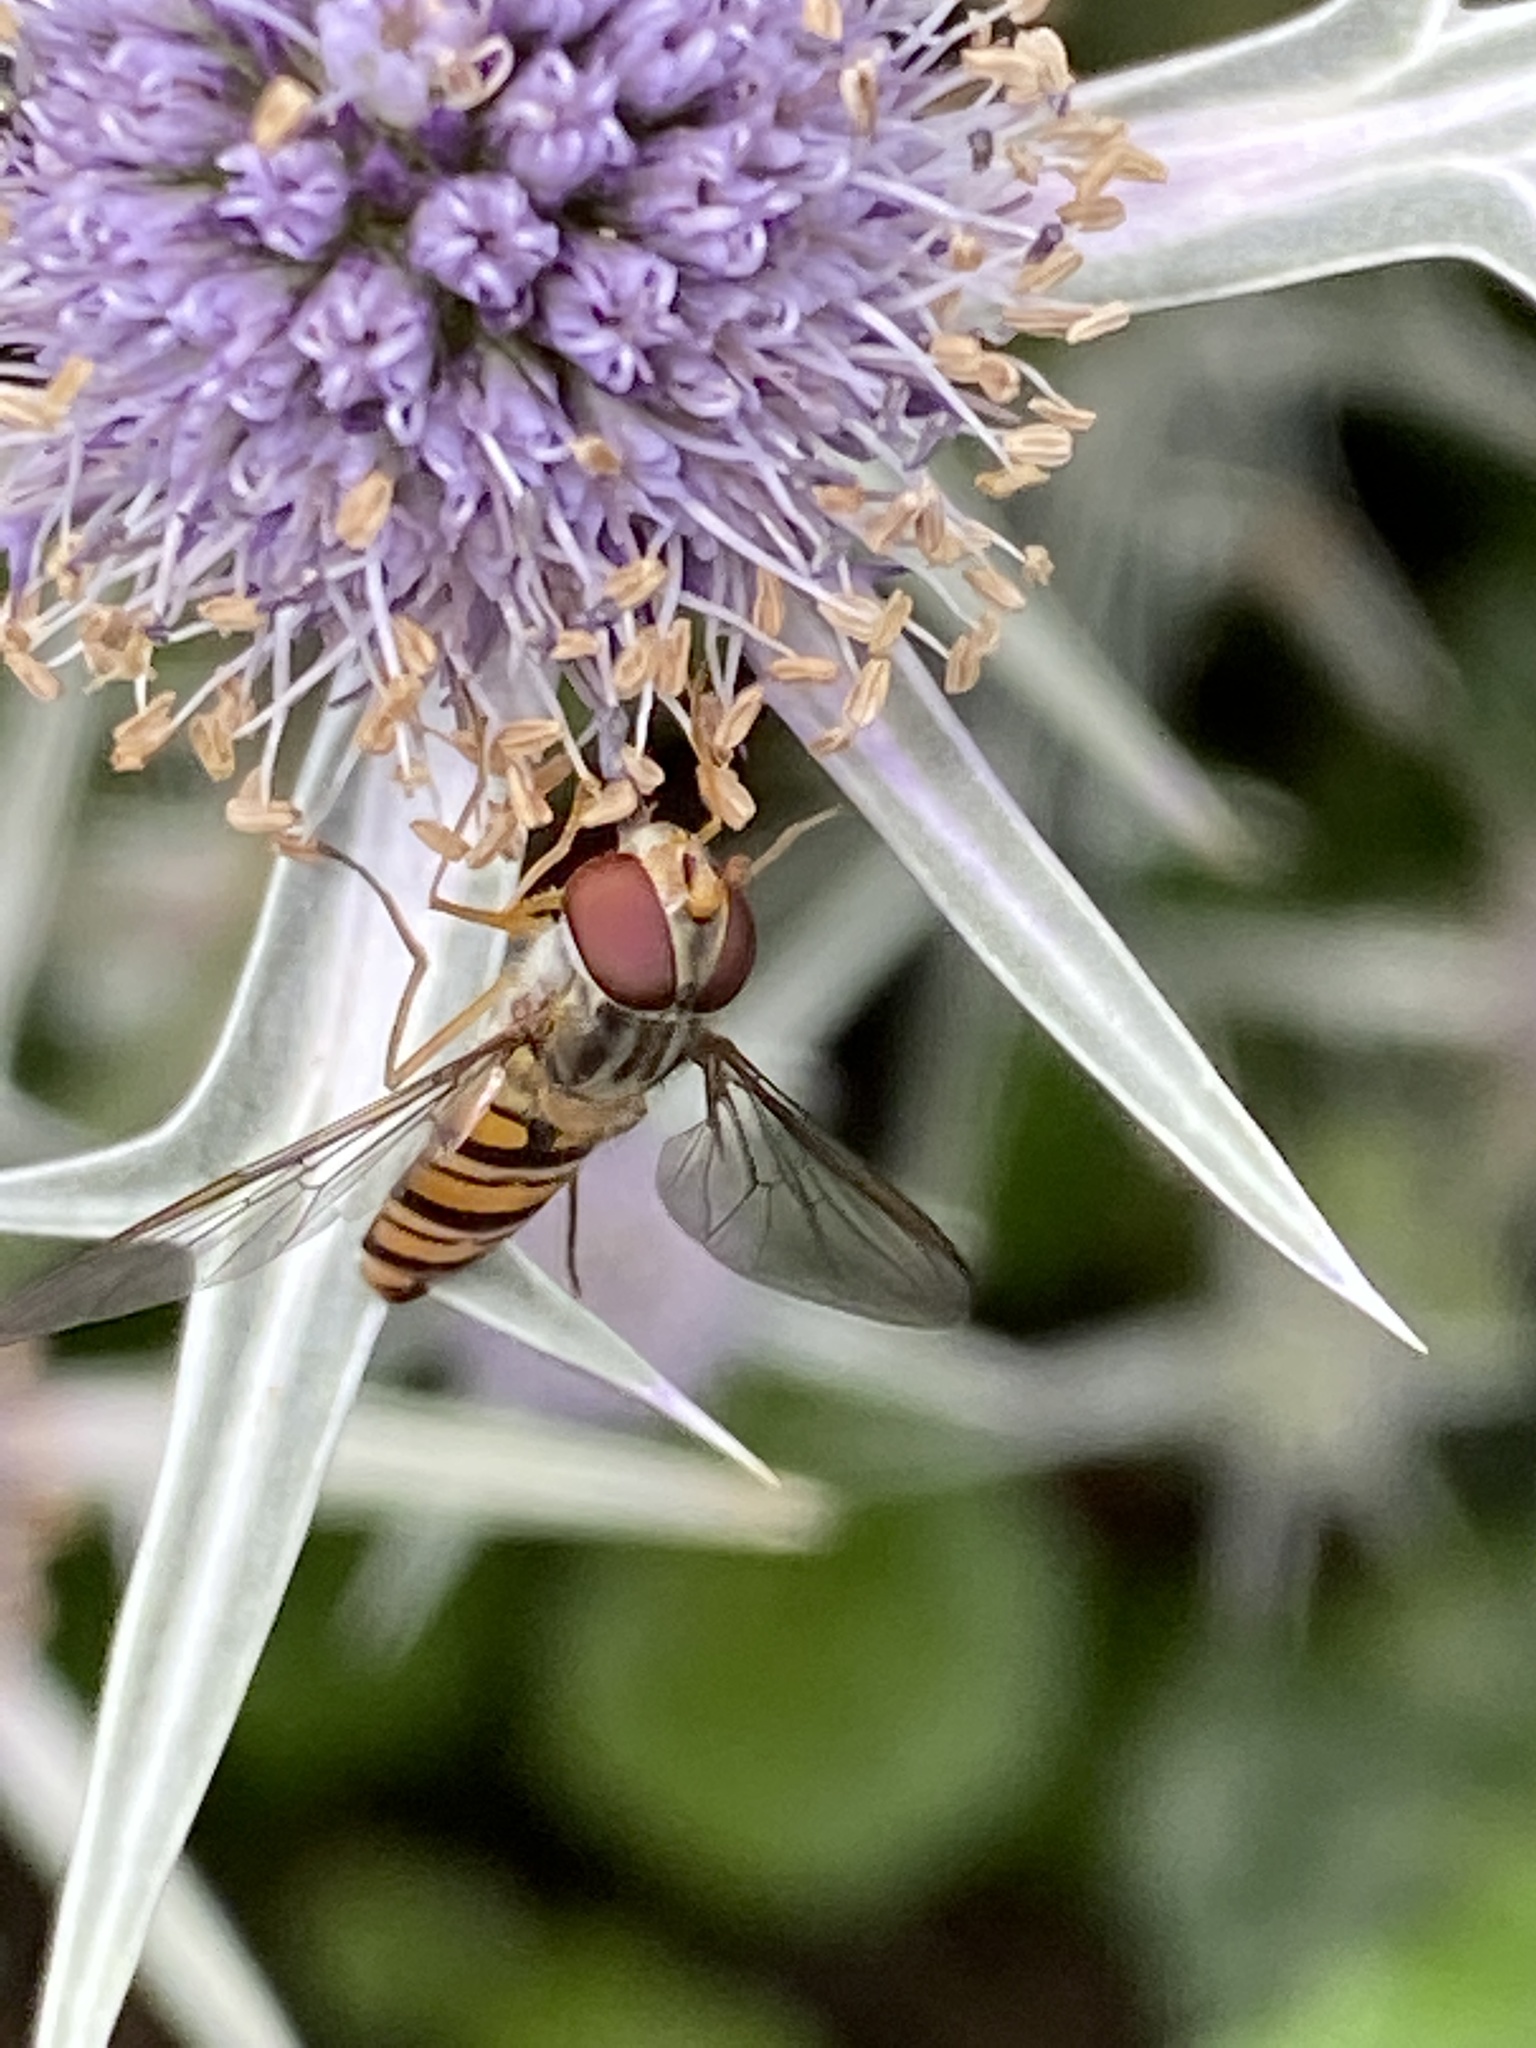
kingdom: Animalia
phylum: Arthropoda
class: Insecta
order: Diptera
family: Syrphidae
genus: Episyrphus
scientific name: Episyrphus balteatus
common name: Marmalade hoverfly
